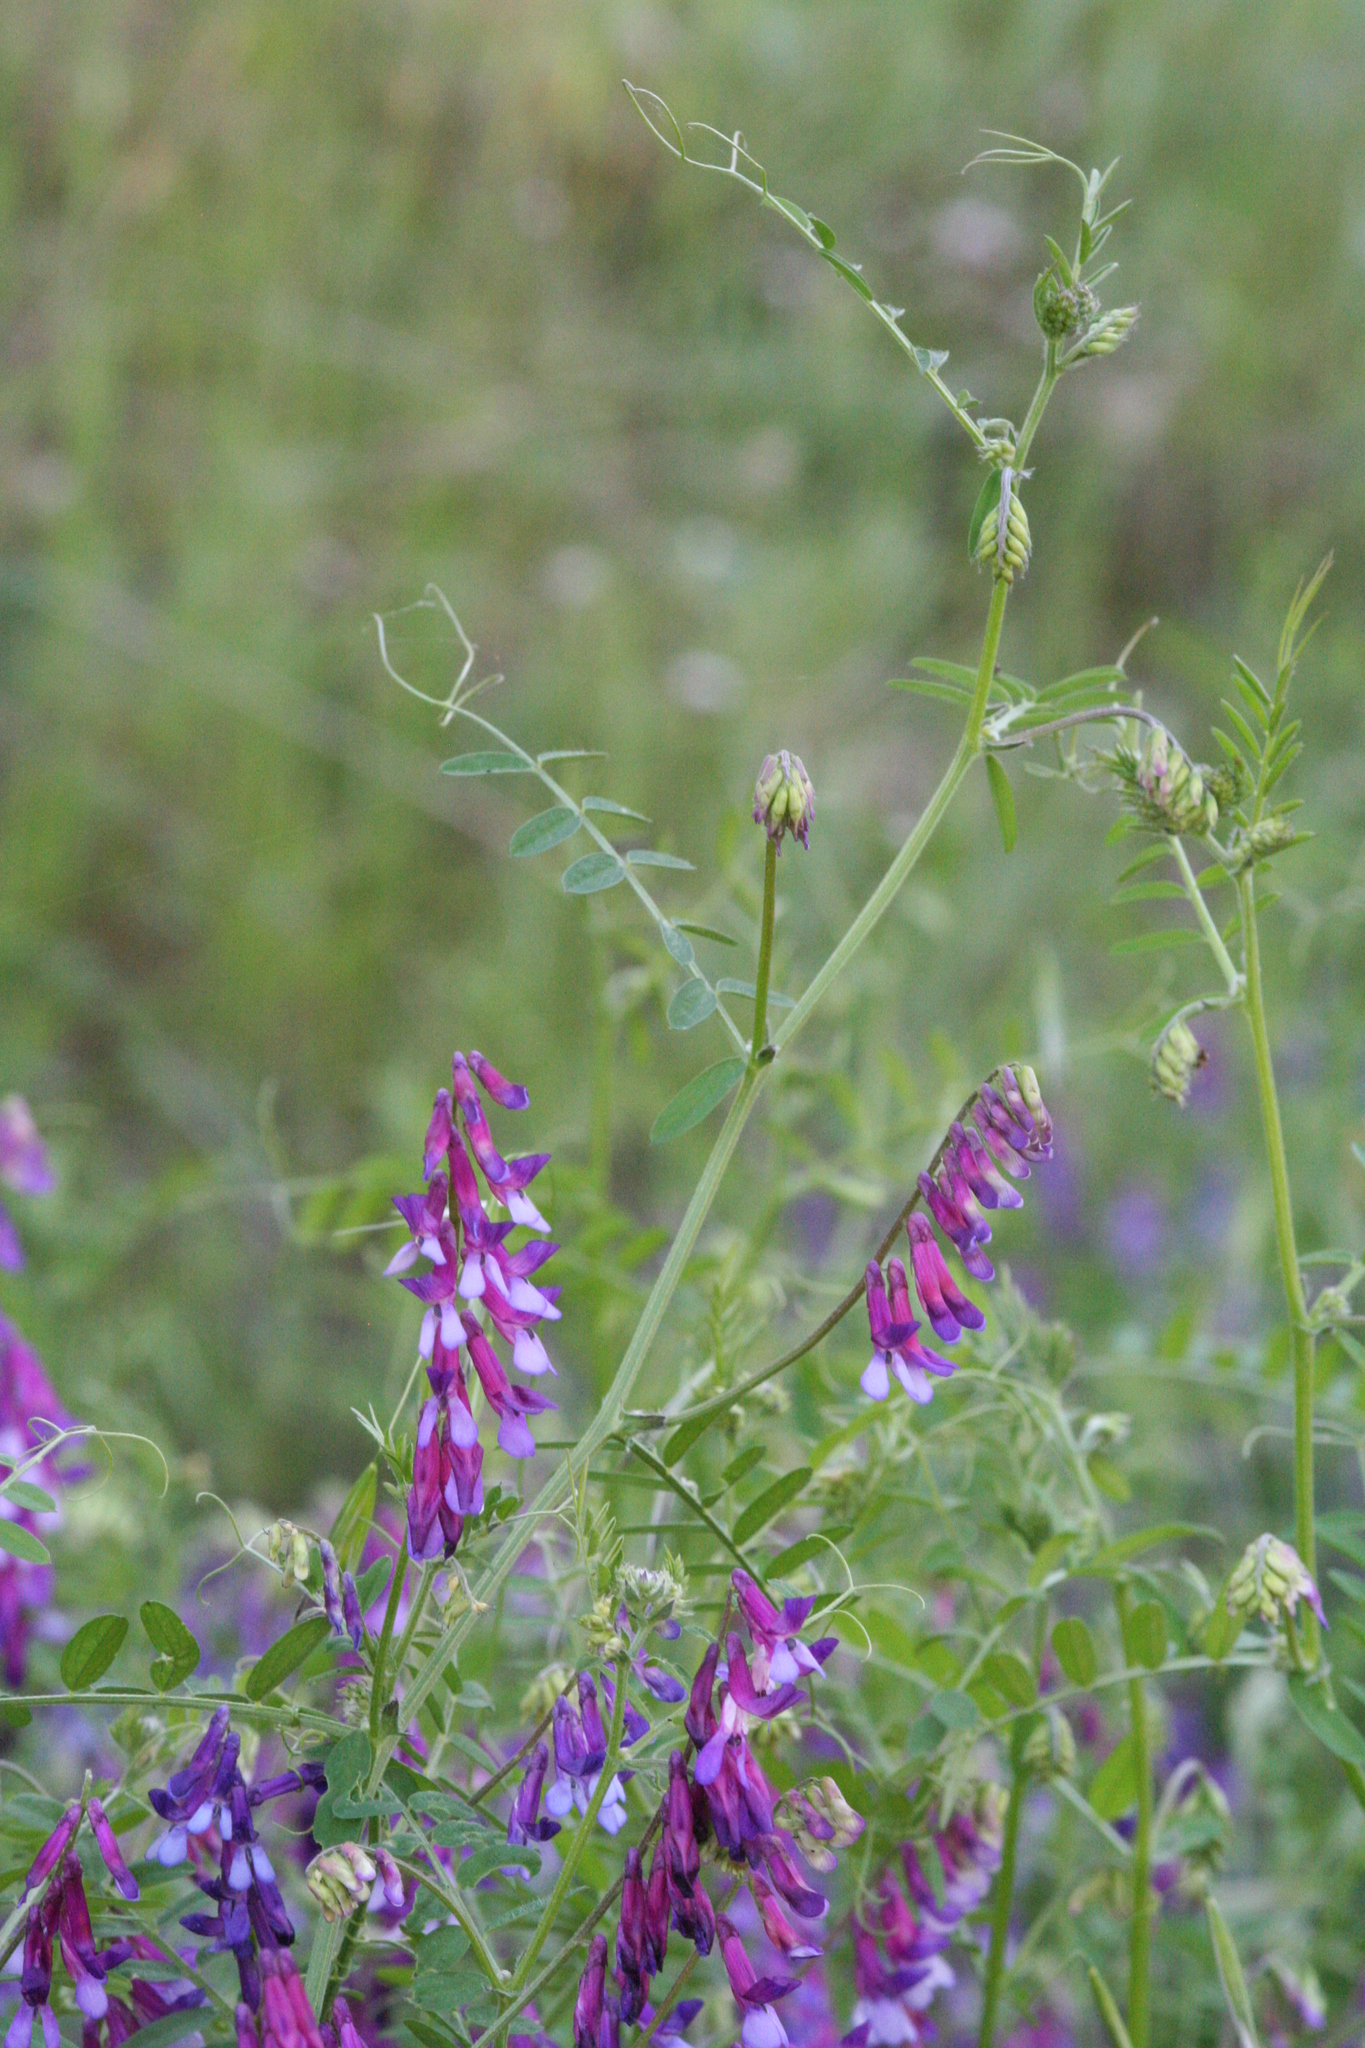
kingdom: Plantae
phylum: Tracheophyta
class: Magnoliopsida
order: Fabales
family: Fabaceae
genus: Vicia
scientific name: Vicia villosa
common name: Fodder vetch
